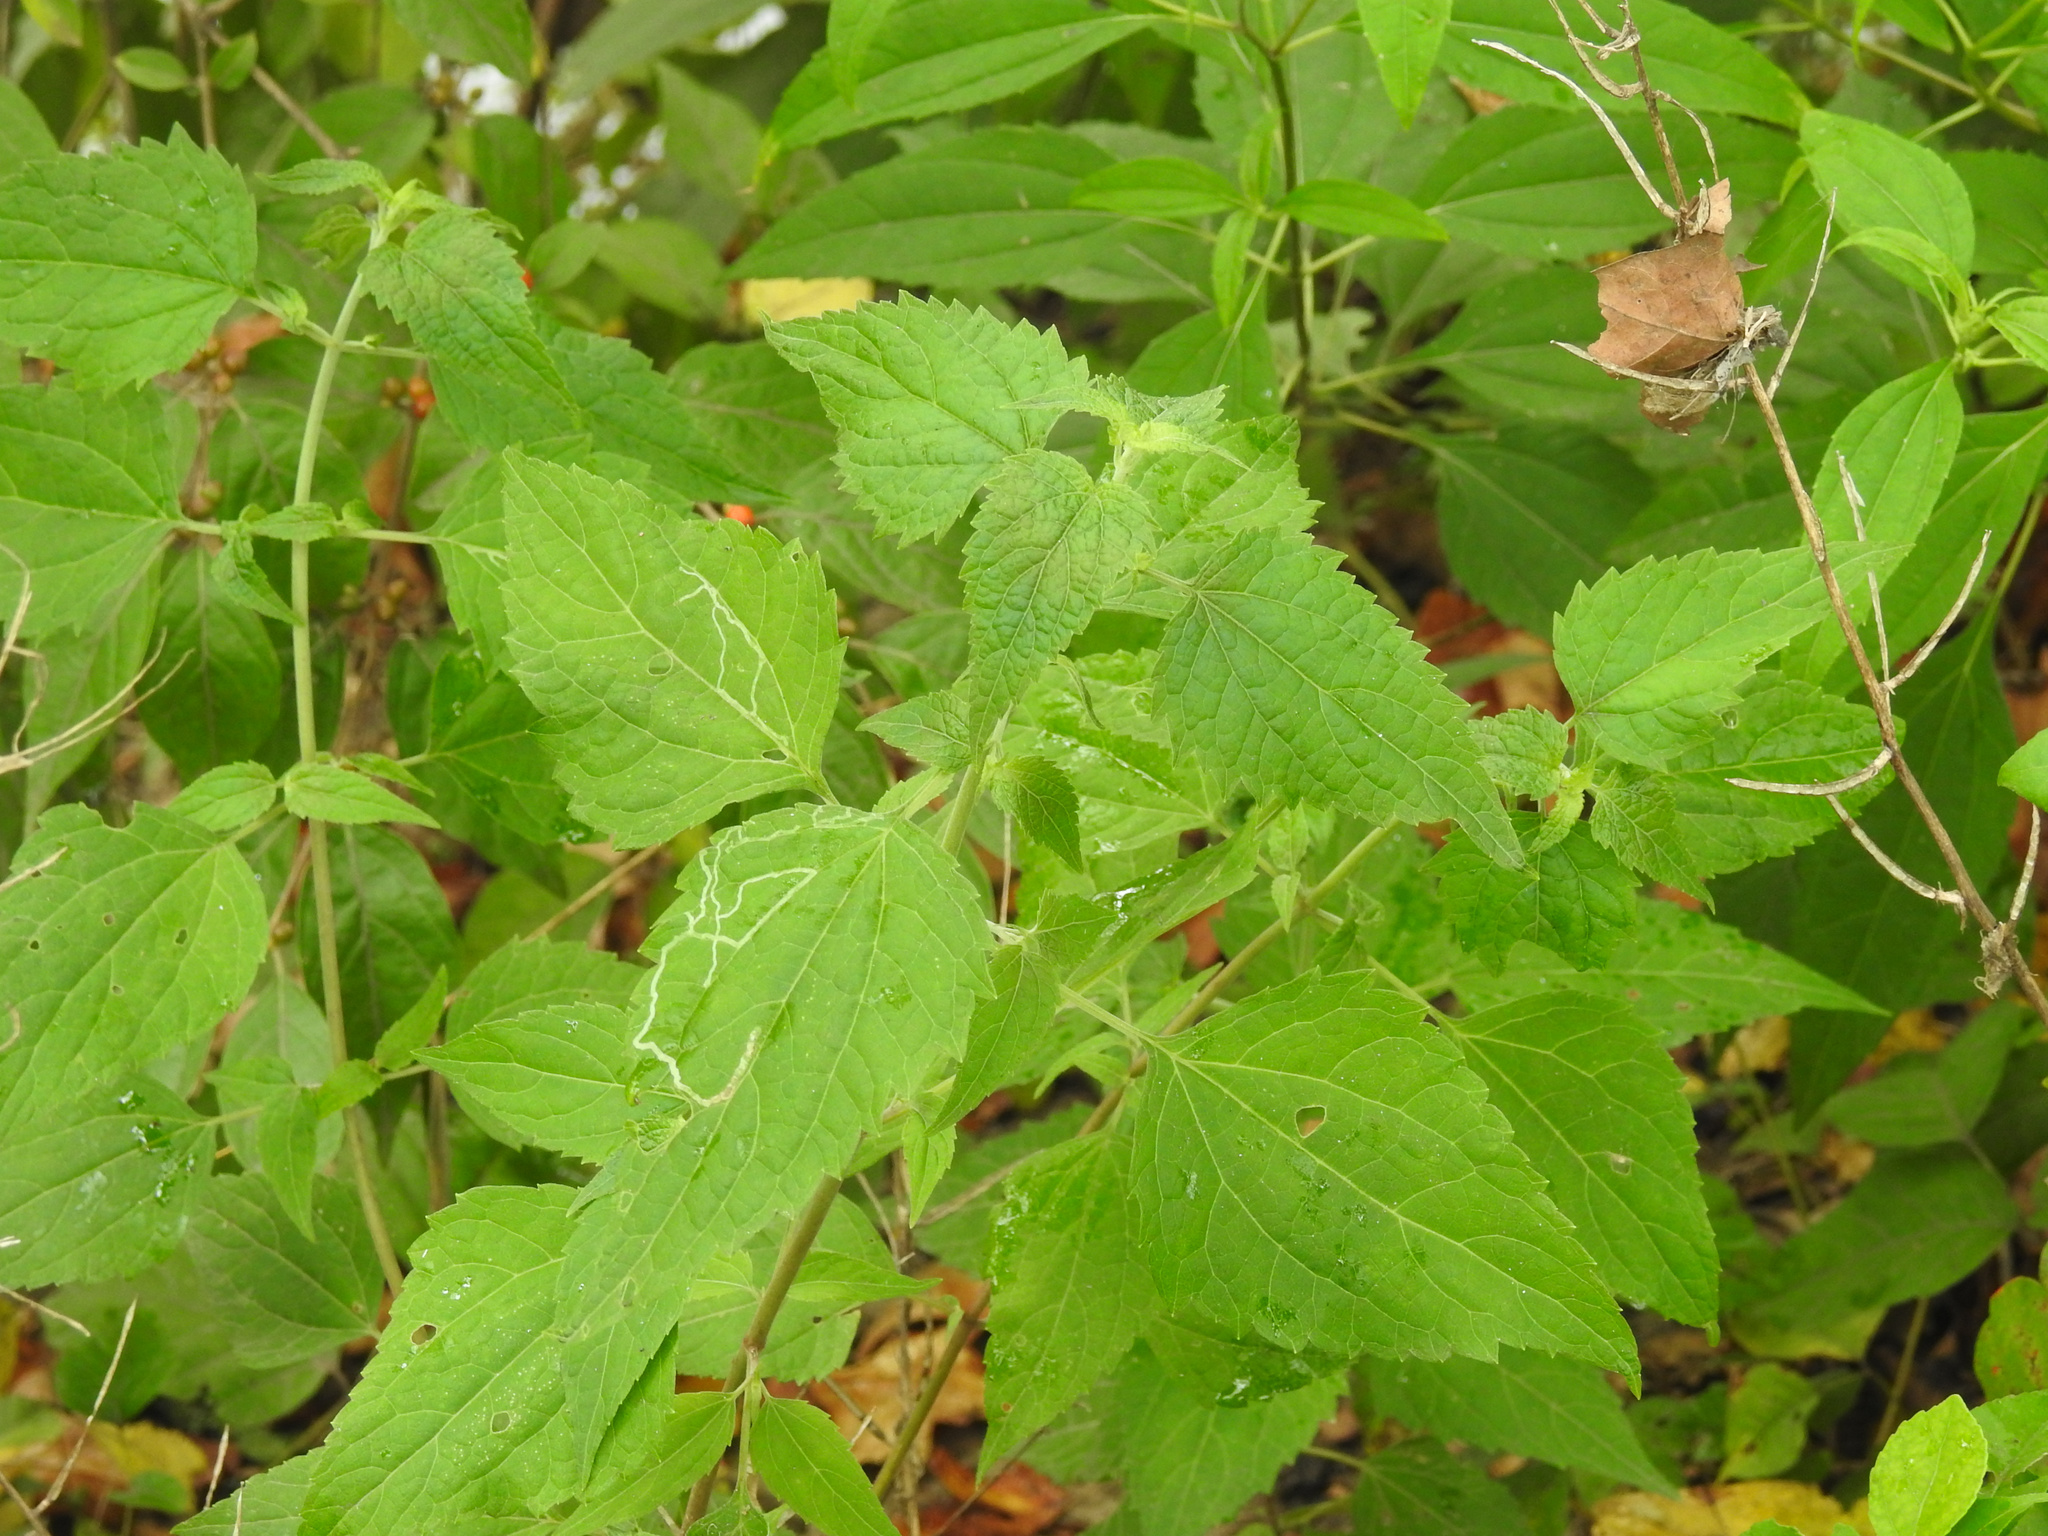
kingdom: Plantae
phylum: Tracheophyta
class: Magnoliopsida
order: Asterales
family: Asteraceae
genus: Ageratina
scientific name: Ageratina altissima
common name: White snakeroot
